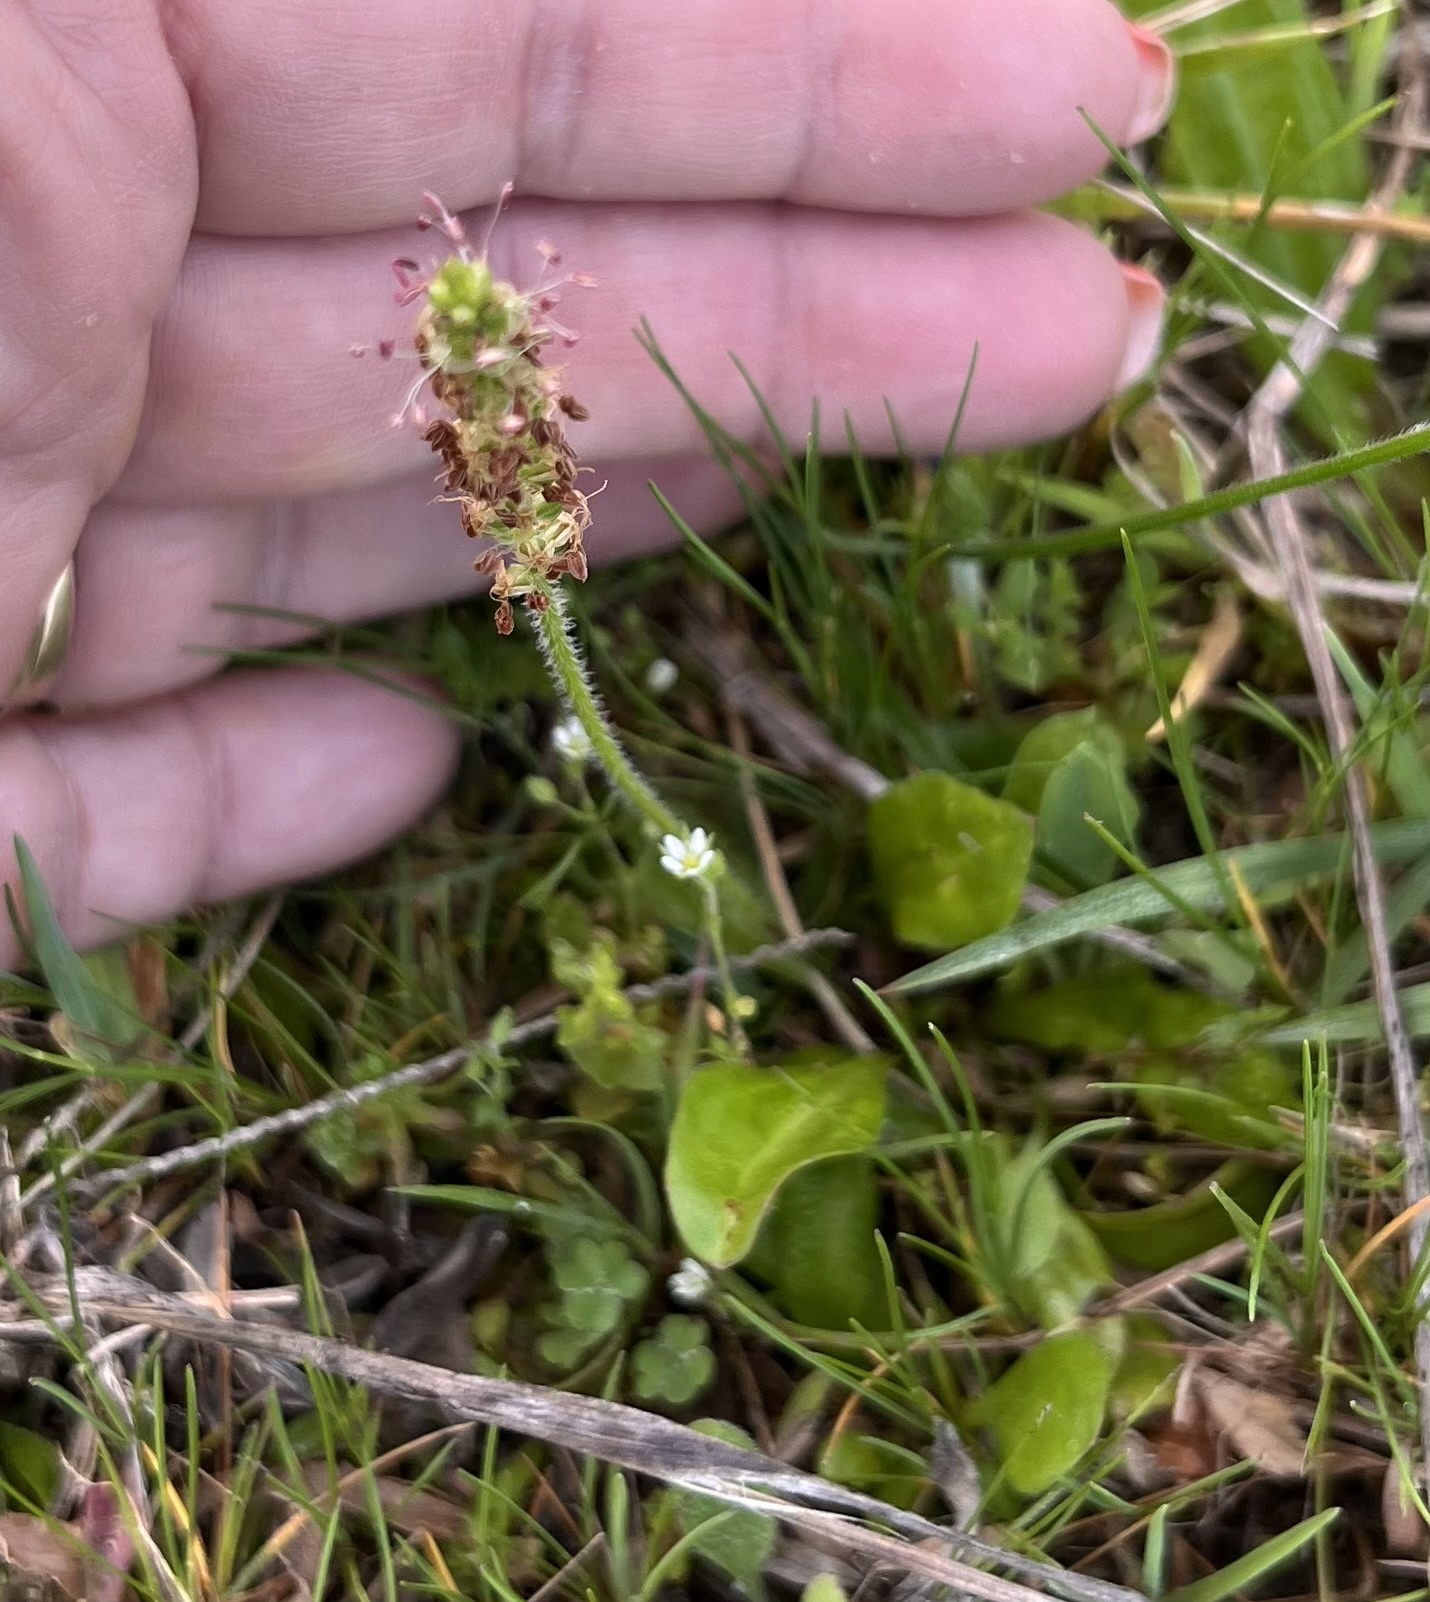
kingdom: Plantae
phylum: Tracheophyta
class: Magnoliopsida
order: Lamiales
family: Plantaginaceae
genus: Plantago
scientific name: Plantago virginica
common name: Hoary plantain
